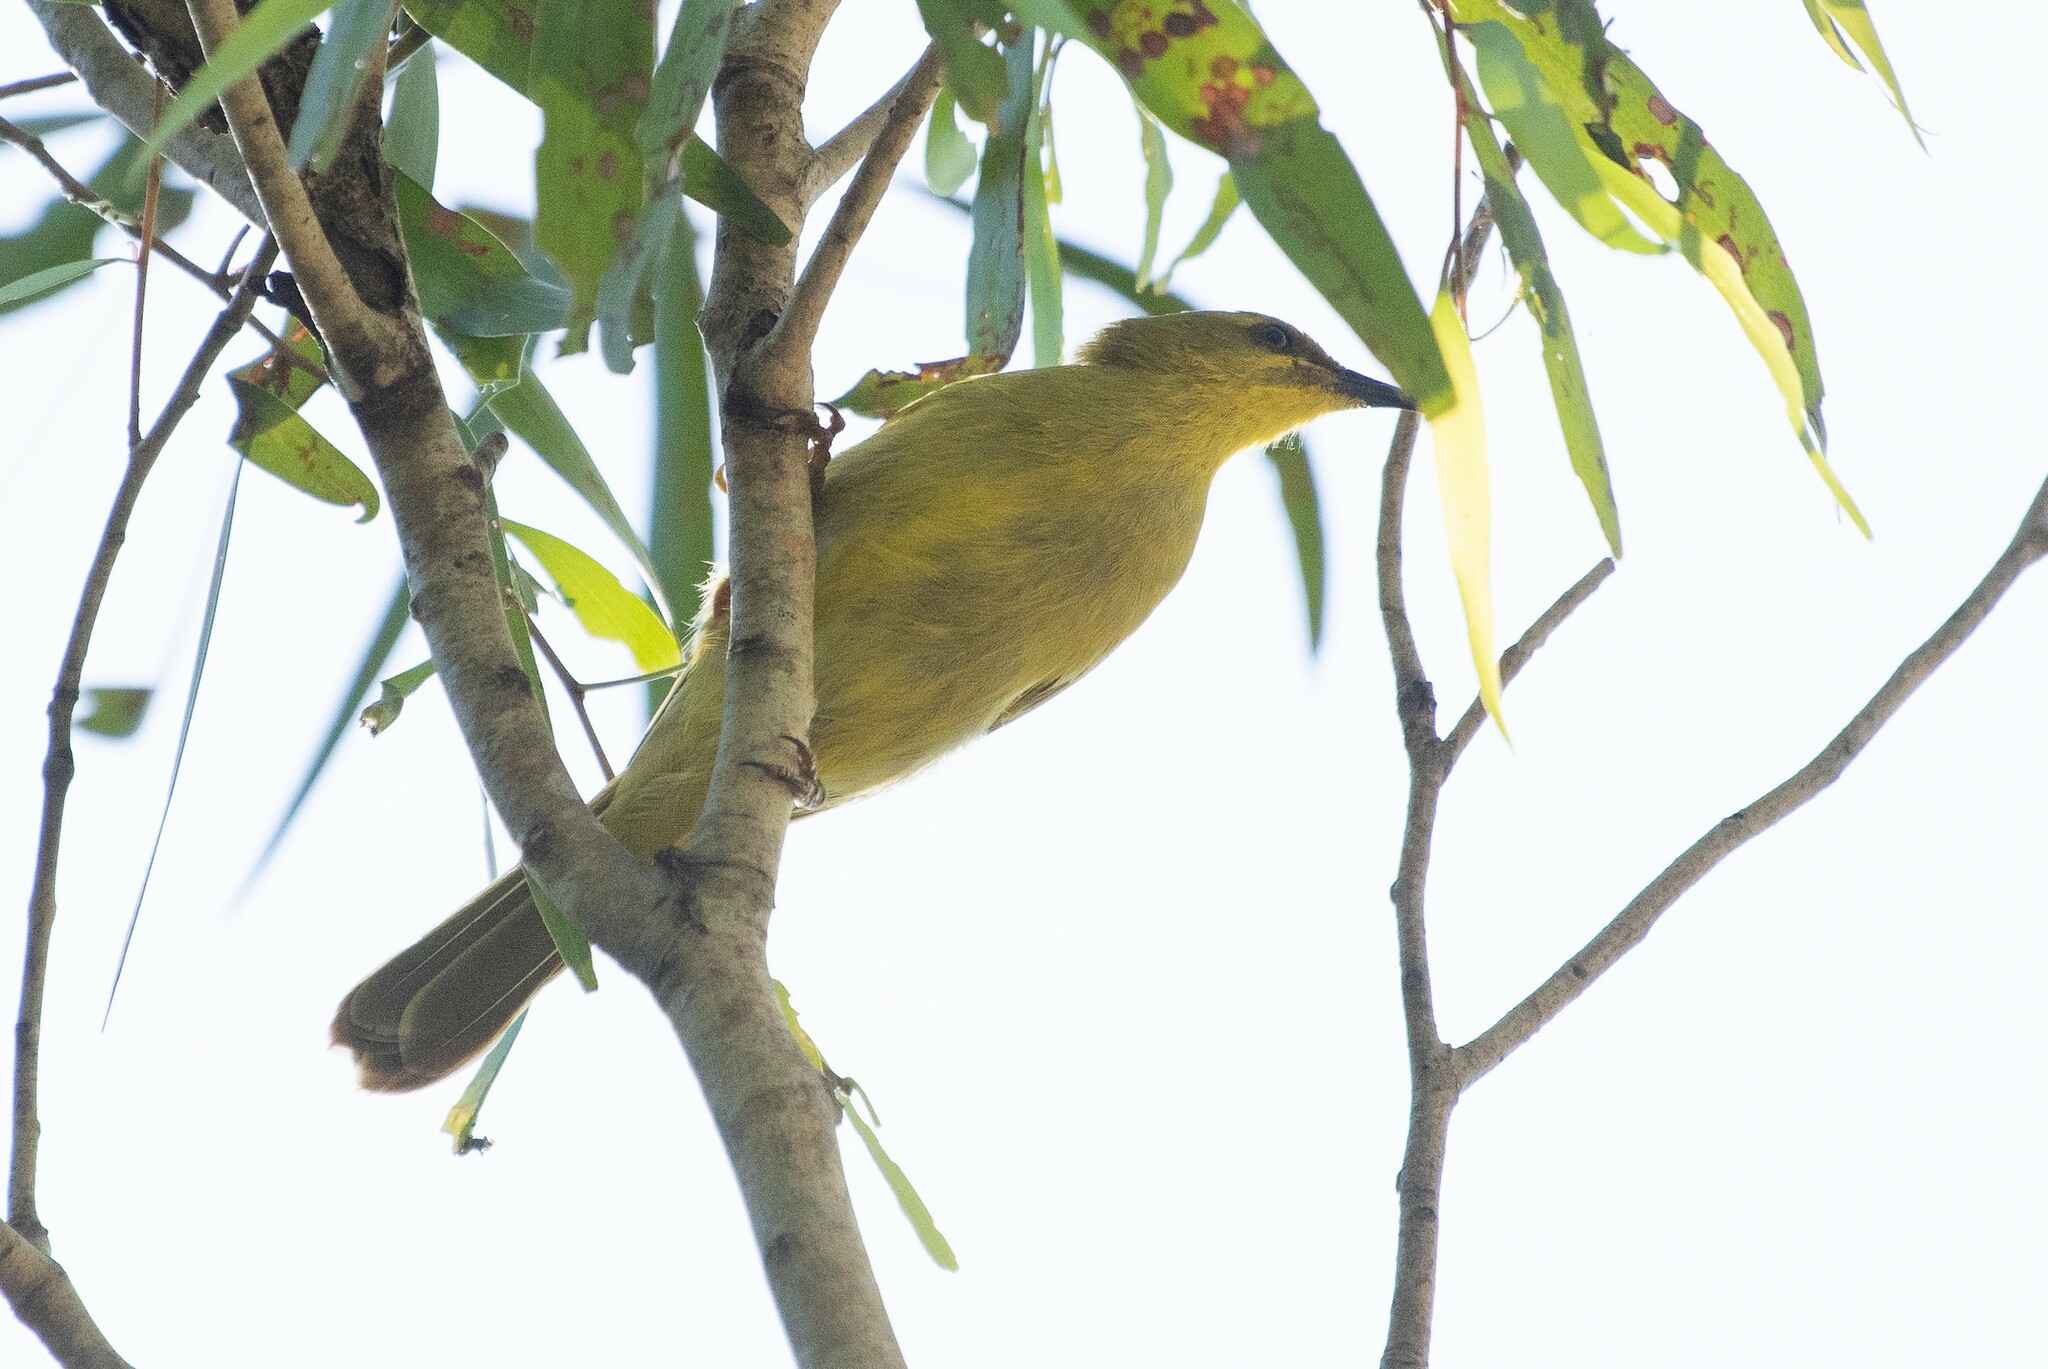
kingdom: Animalia
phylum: Chordata
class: Aves
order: Passeriformes
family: Meliphagidae
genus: Stomiopera
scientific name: Stomiopera flava
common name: Yellow honeyeater
